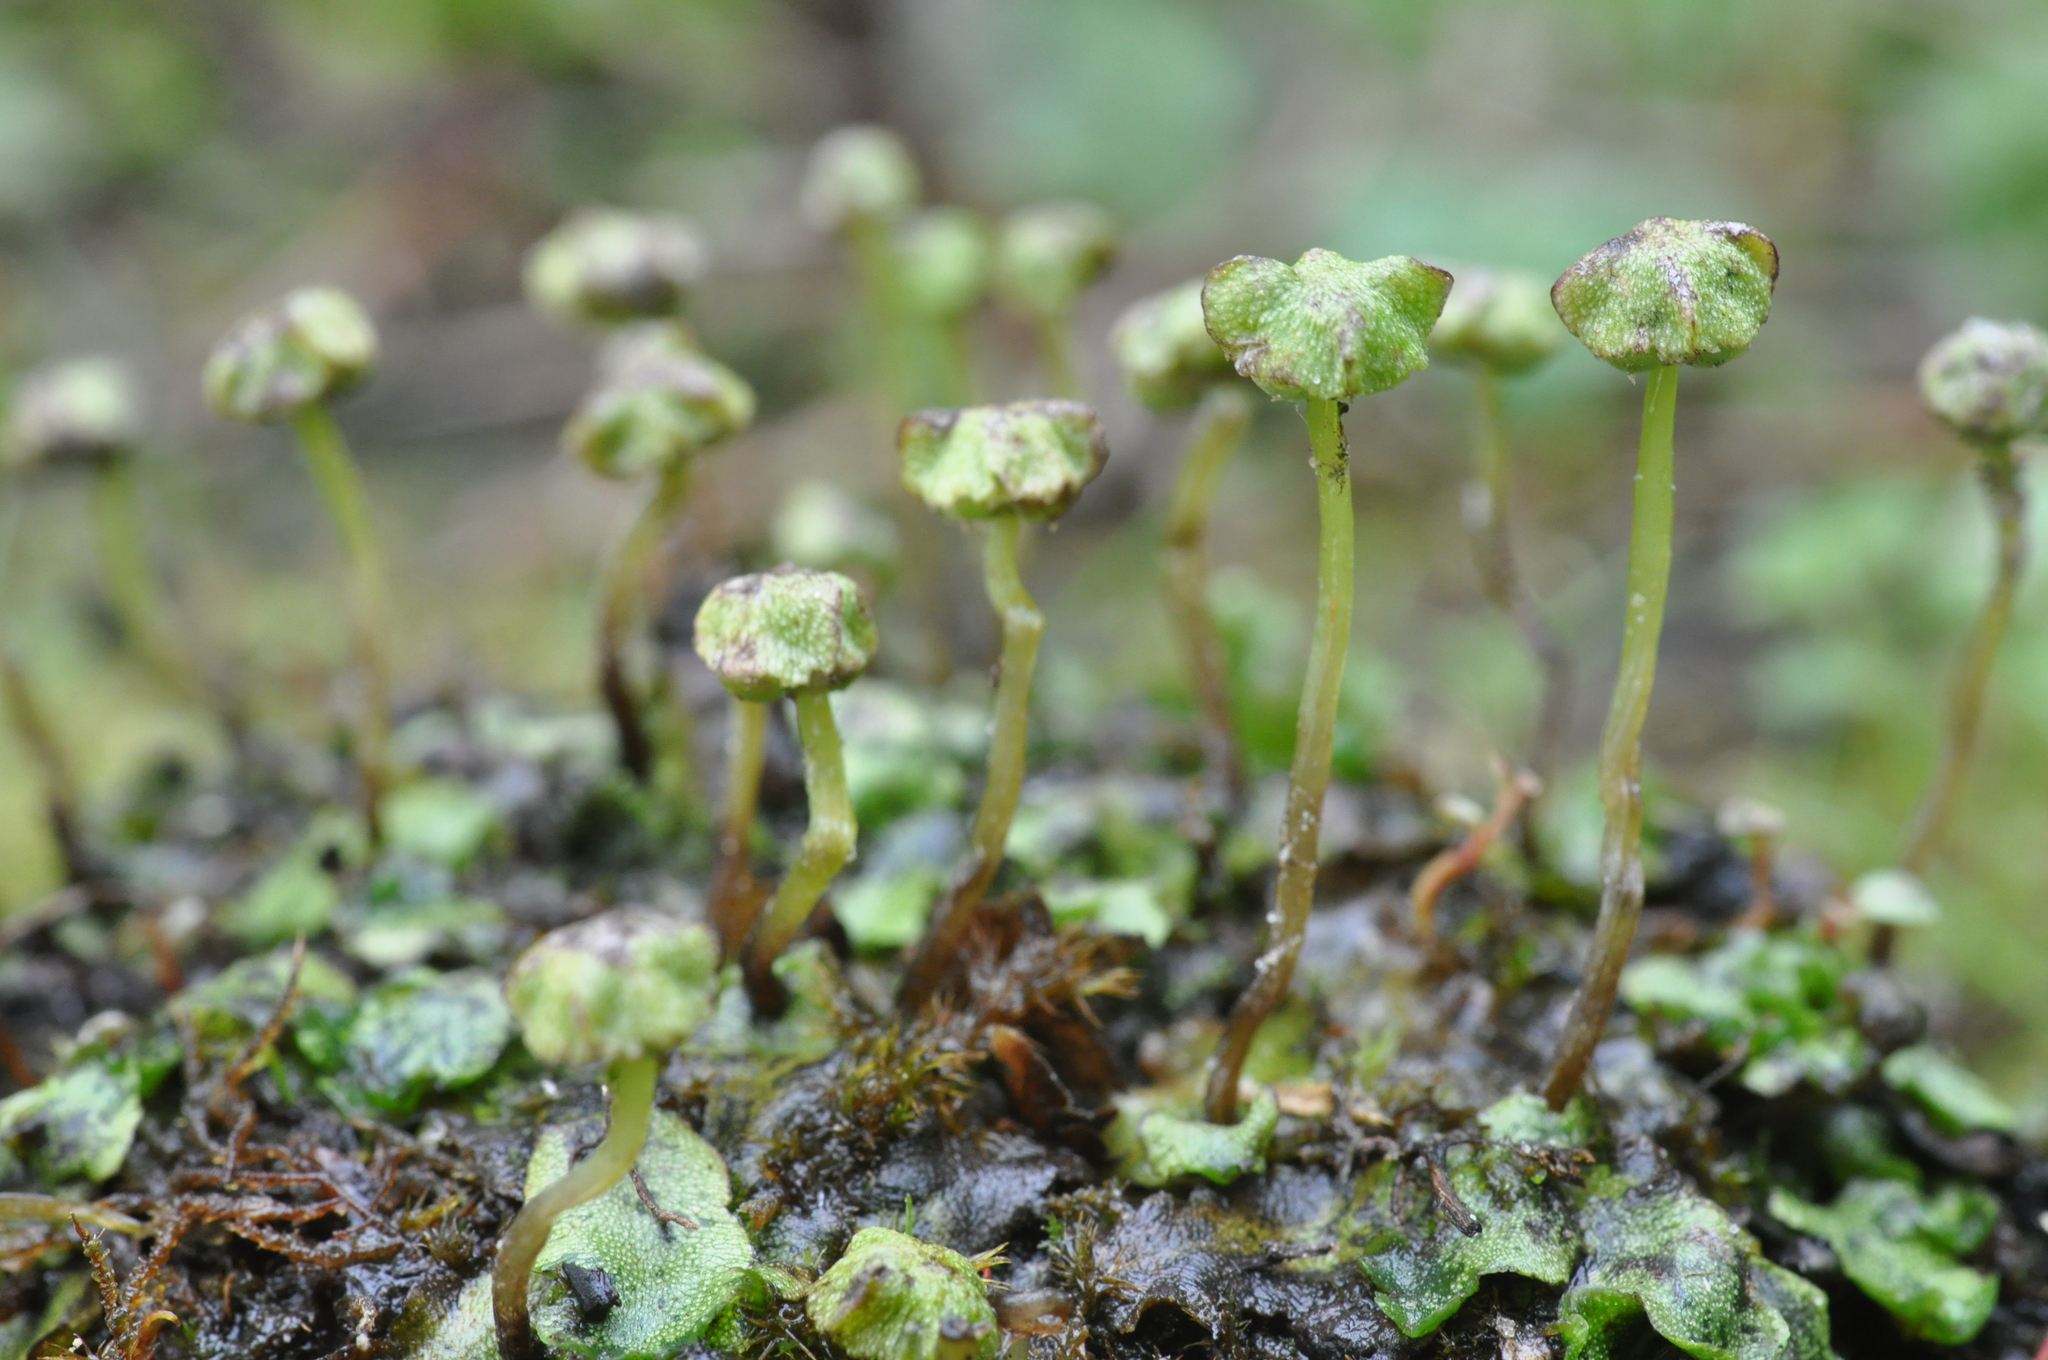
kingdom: Plantae
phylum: Marchantiophyta
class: Marchantiopsida
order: Marchantiales
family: Marchantiaceae
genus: Marchantia
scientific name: Marchantia quadrata
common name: Narrow mushroom-headed liverwort
